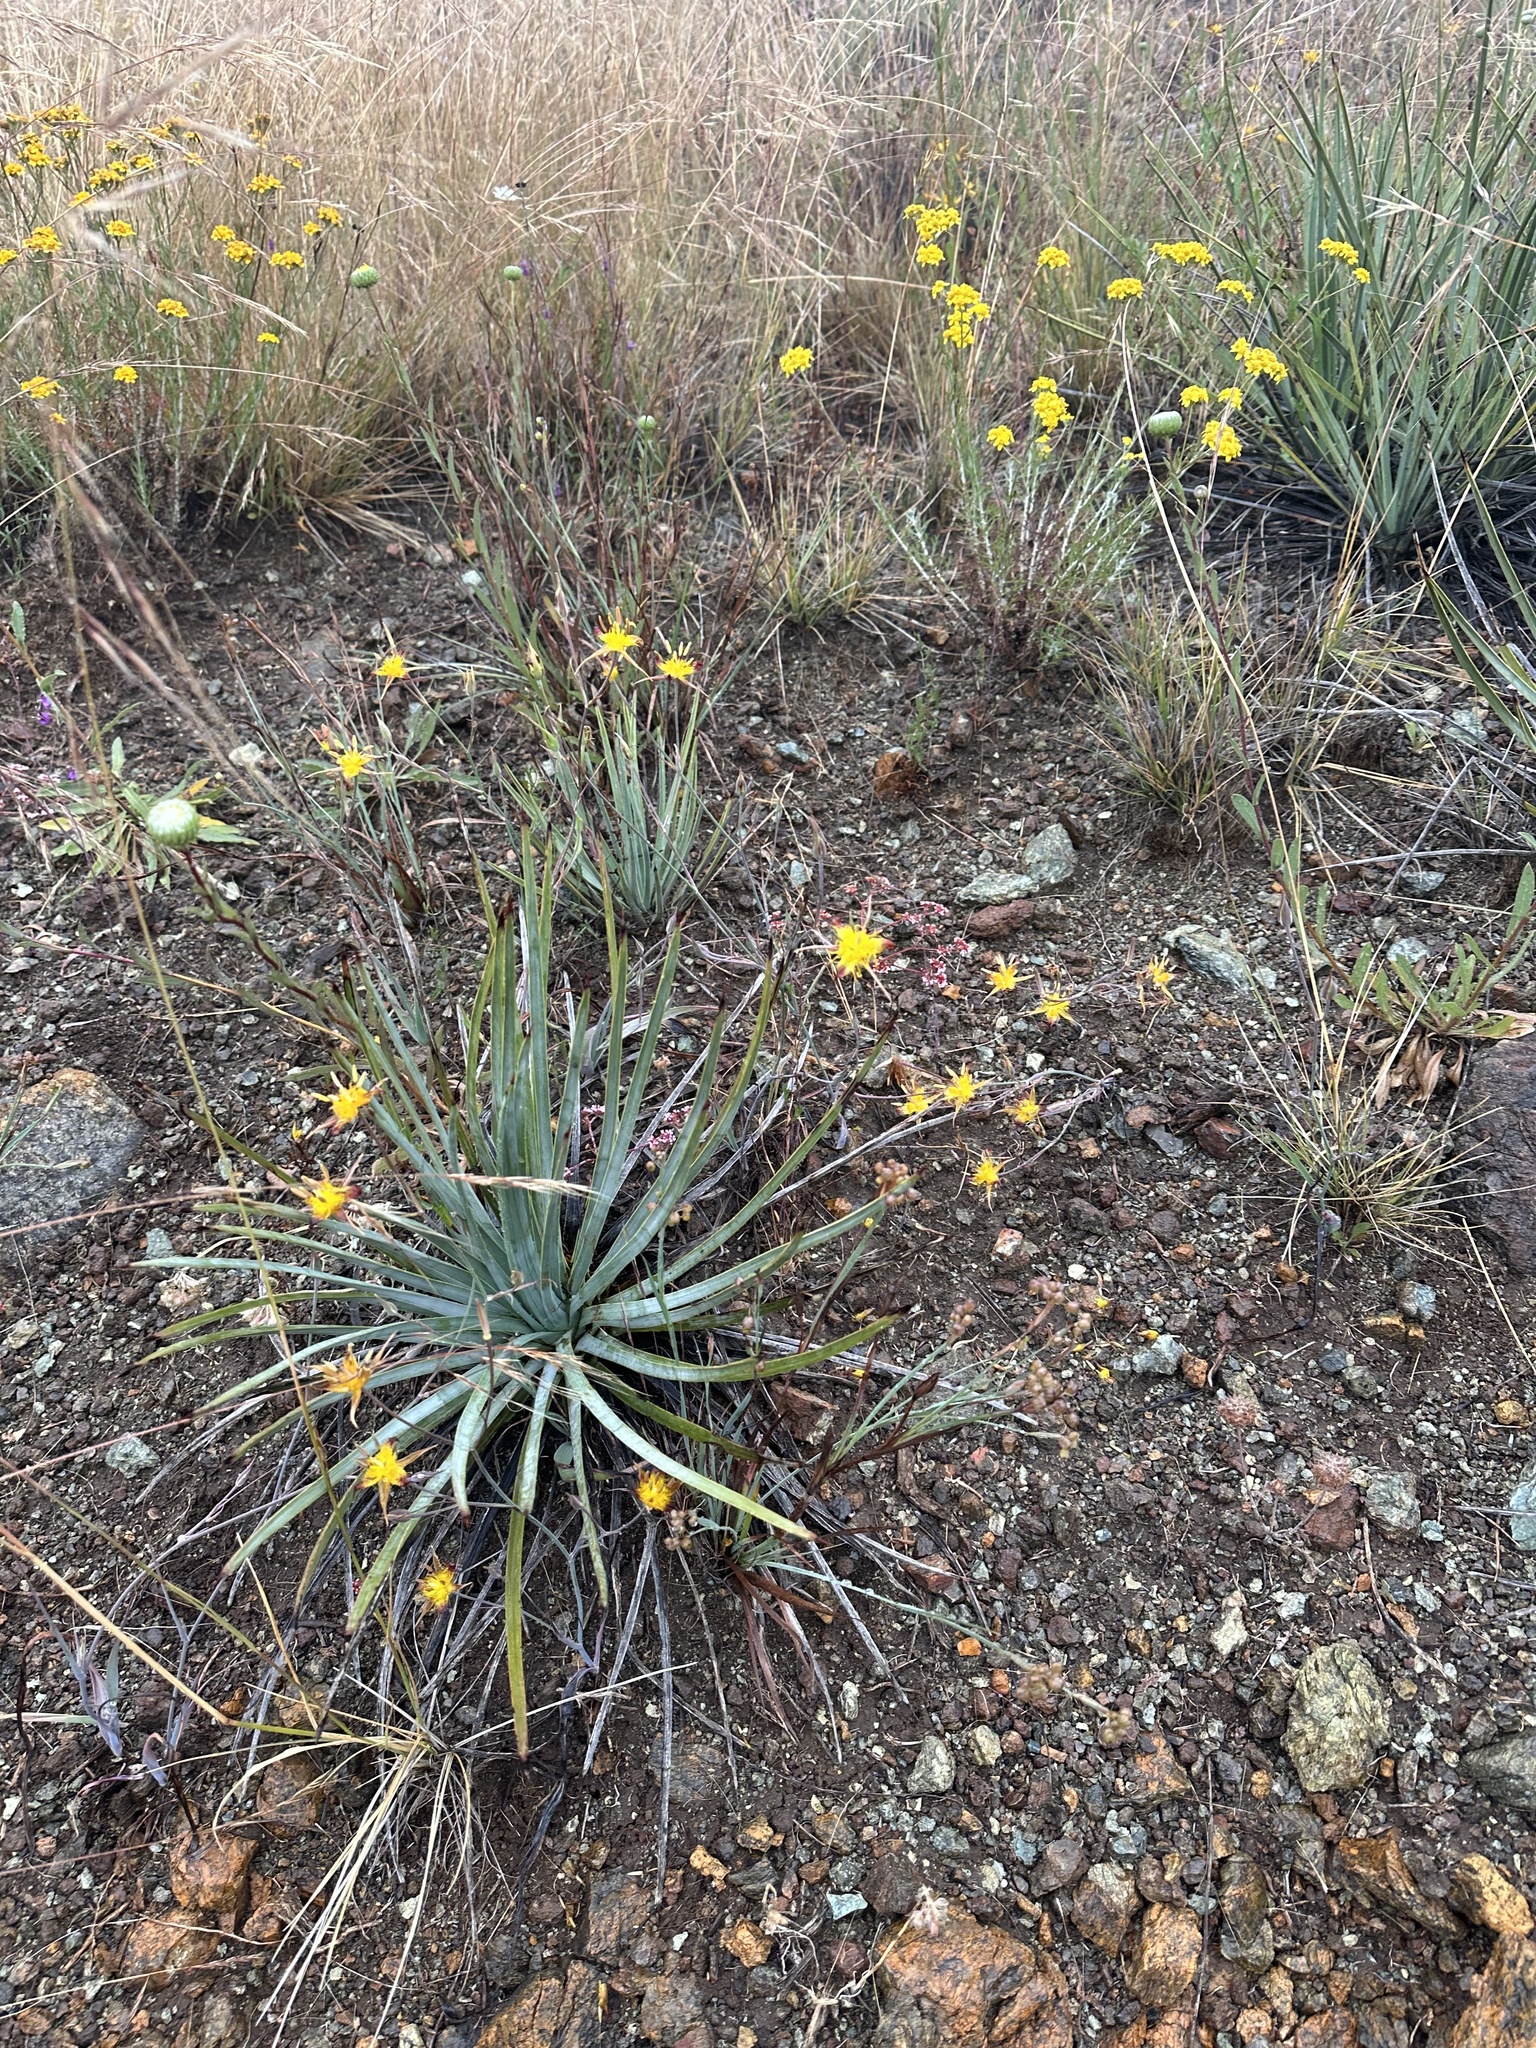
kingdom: Plantae
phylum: Tracheophyta
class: Liliopsida
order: Liliales
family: Liliaceae
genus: Calochortus
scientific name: Calochortus obispoensis
